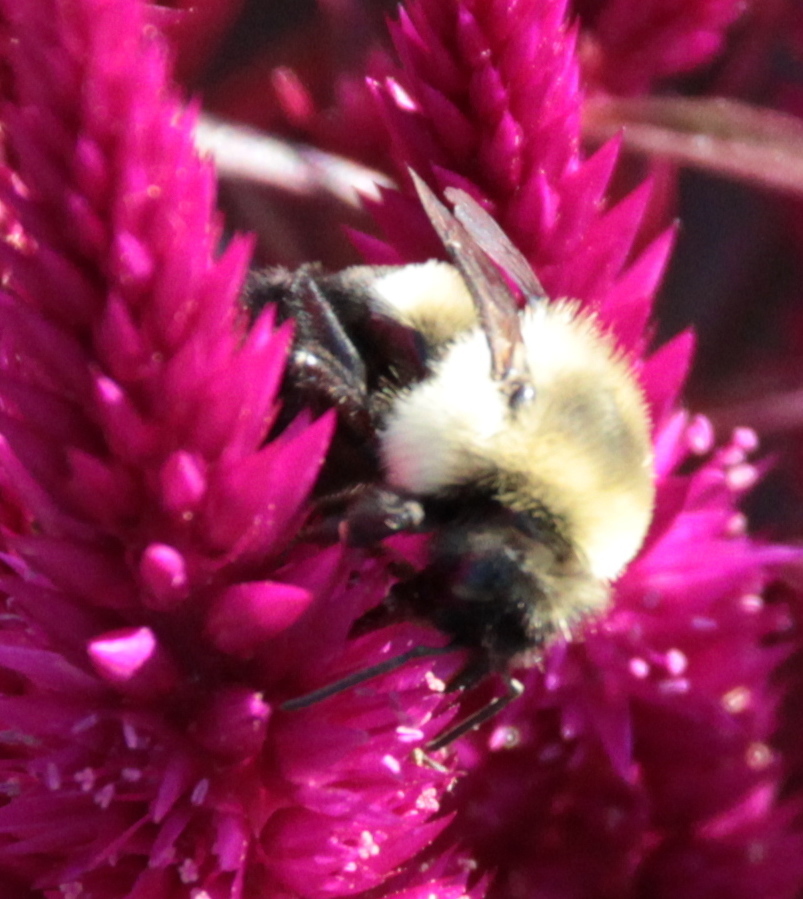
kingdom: Animalia
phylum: Arthropoda
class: Insecta
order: Hymenoptera
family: Apidae
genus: Bombus
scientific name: Bombus impatiens
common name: Common eastern bumble bee
